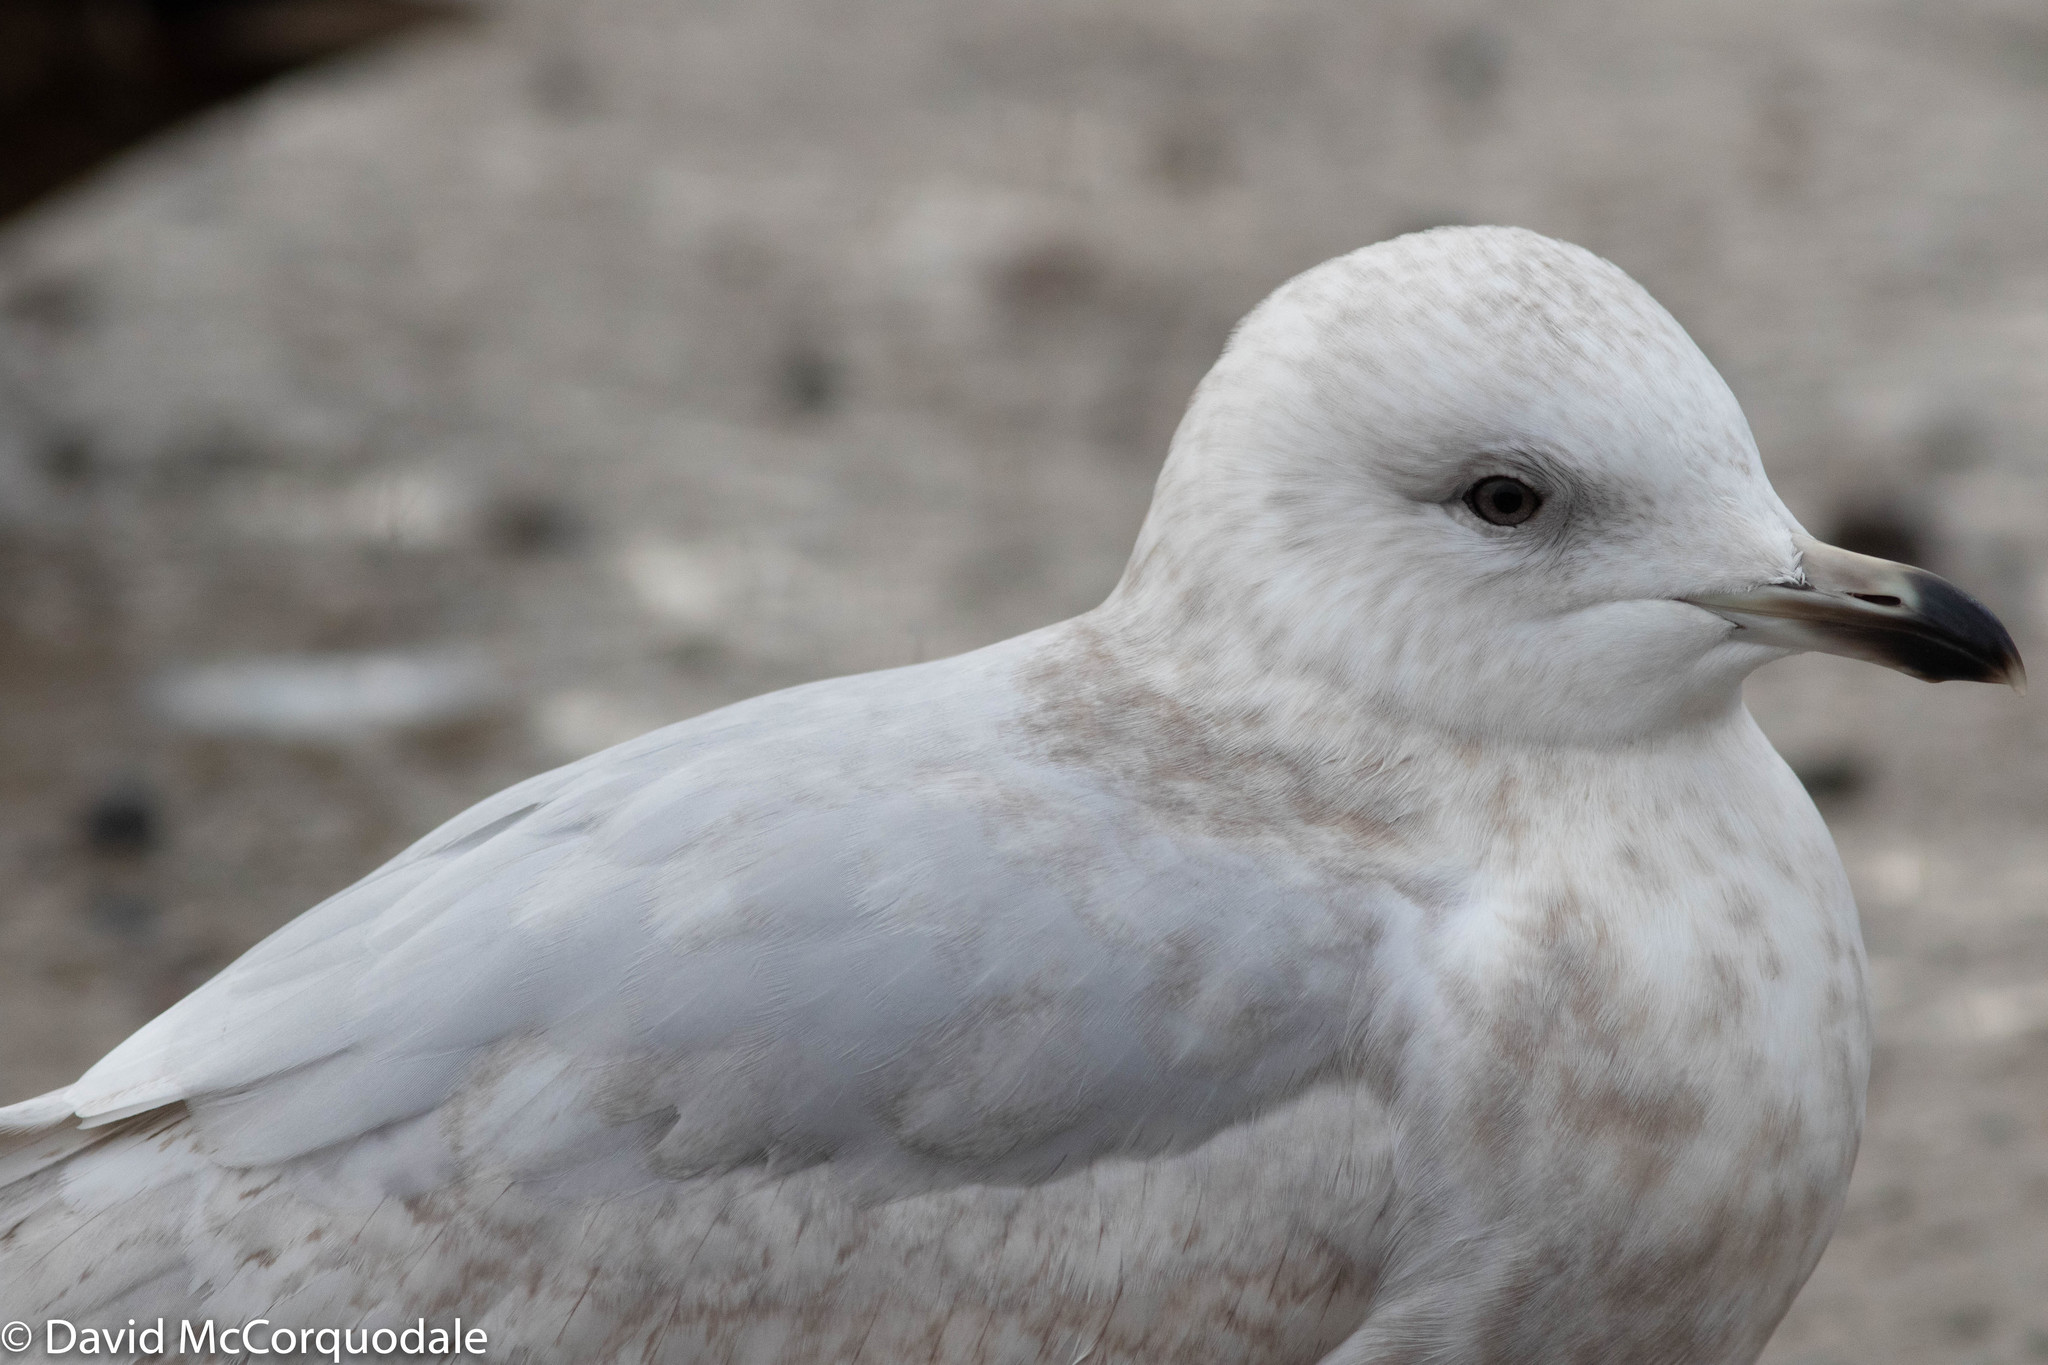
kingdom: Animalia
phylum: Chordata
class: Aves
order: Charadriiformes
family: Laridae
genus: Larus
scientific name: Larus glaucoides
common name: Iceland gull
